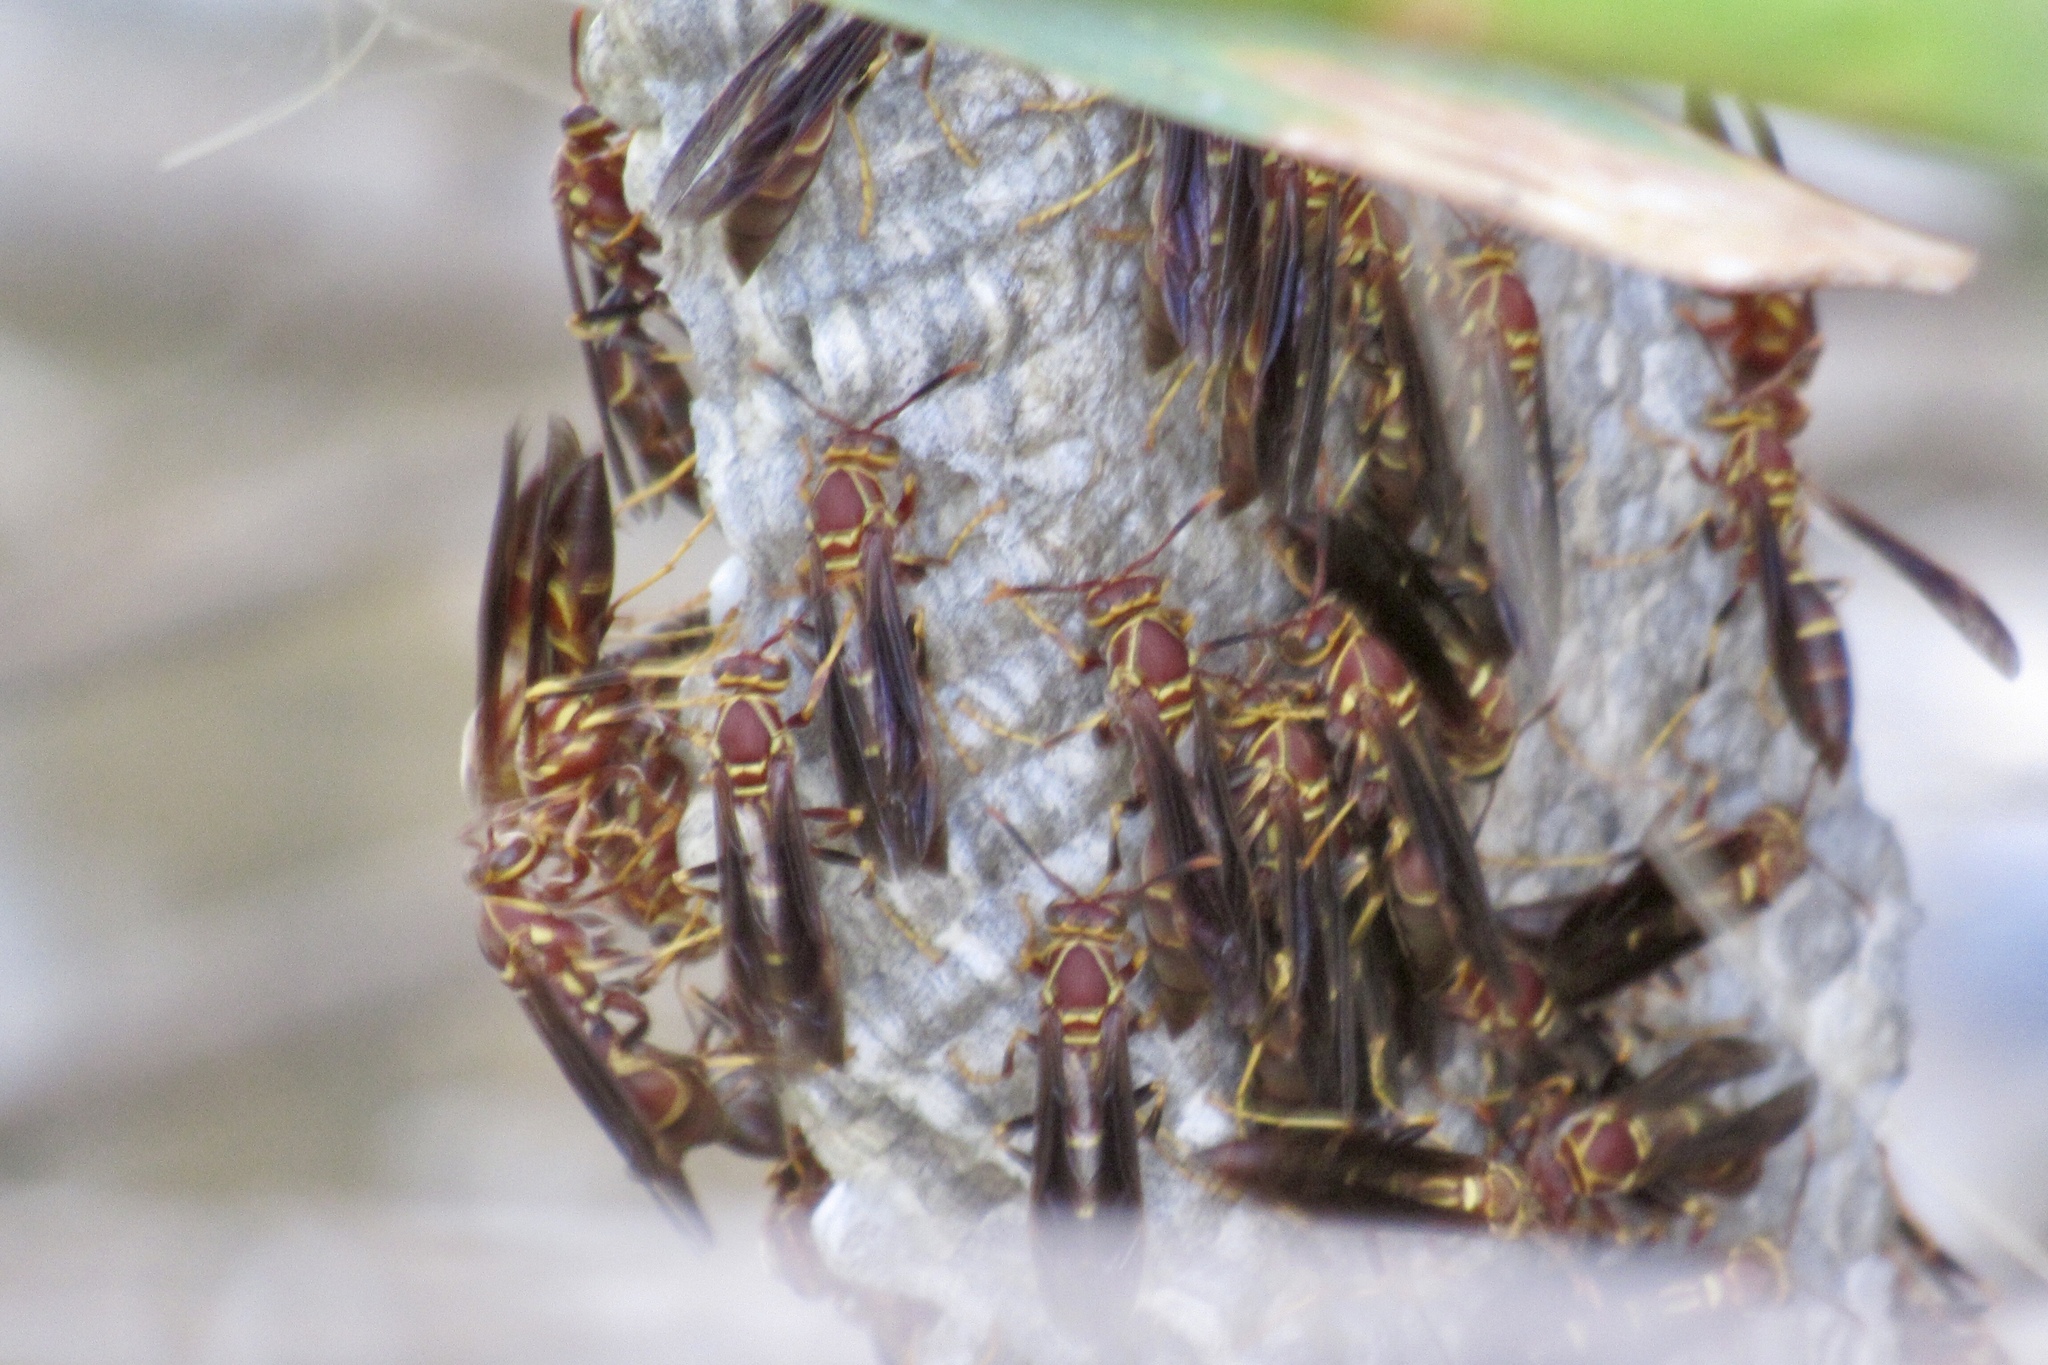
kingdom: Animalia
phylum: Arthropoda
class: Insecta
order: Hymenoptera
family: Eumenidae
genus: Polistes
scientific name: Polistes arizonensis
